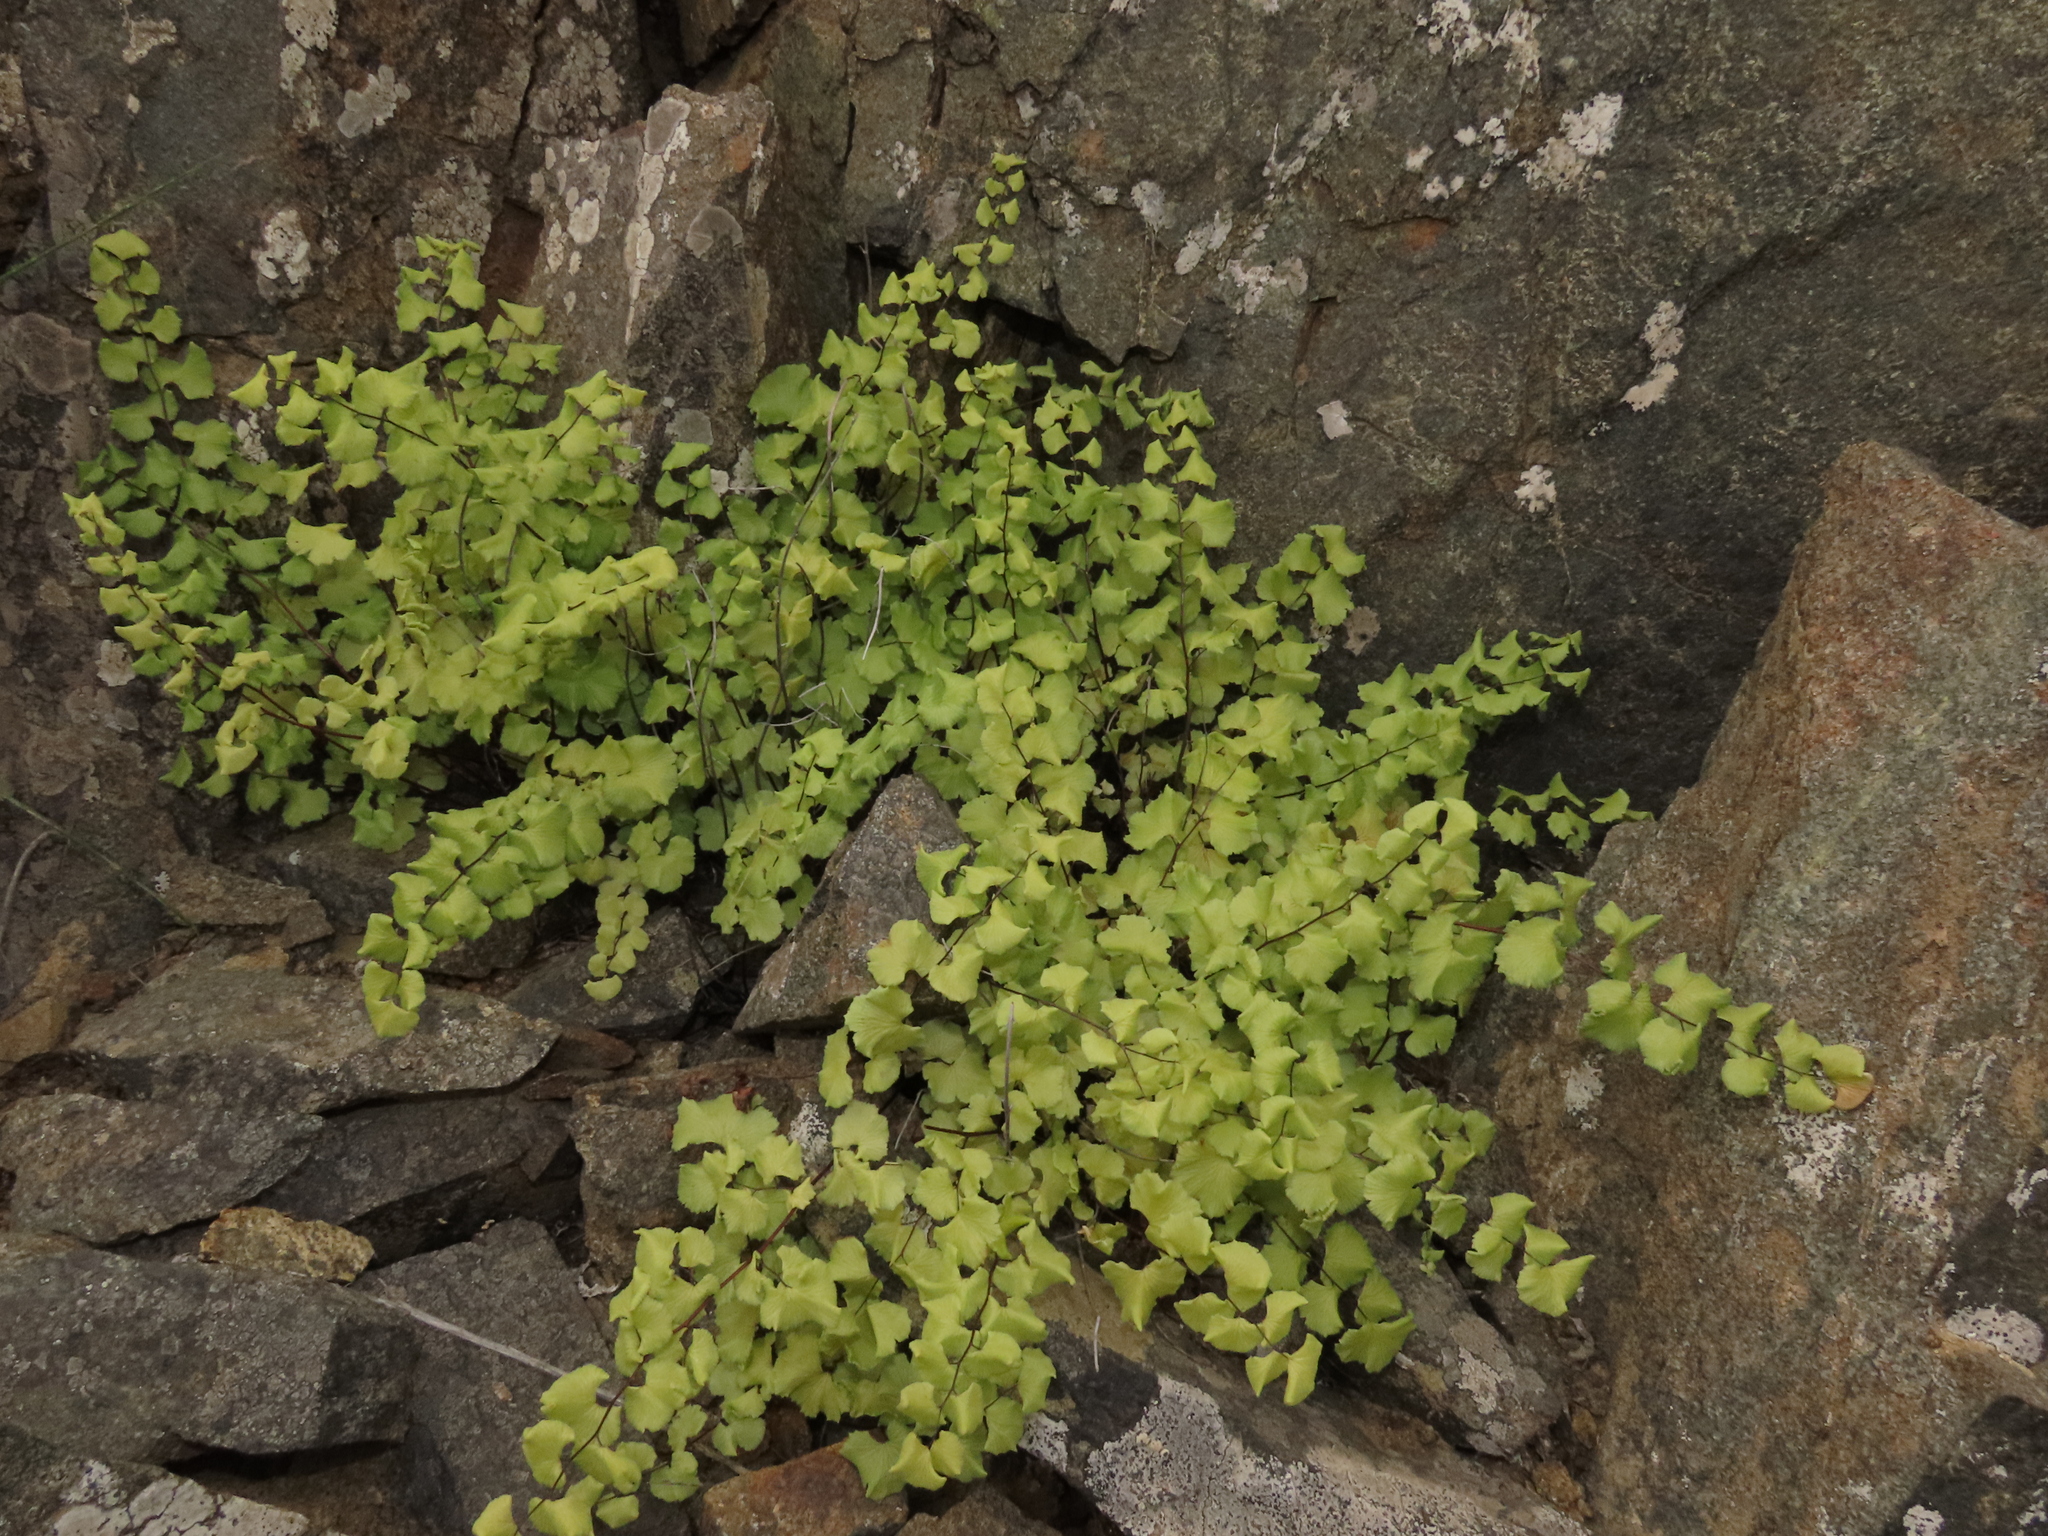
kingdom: Plantae
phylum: Tracheophyta
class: Polypodiopsida
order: Polypodiales
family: Pteridaceae
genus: Adiantum
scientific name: Adiantum chilense
